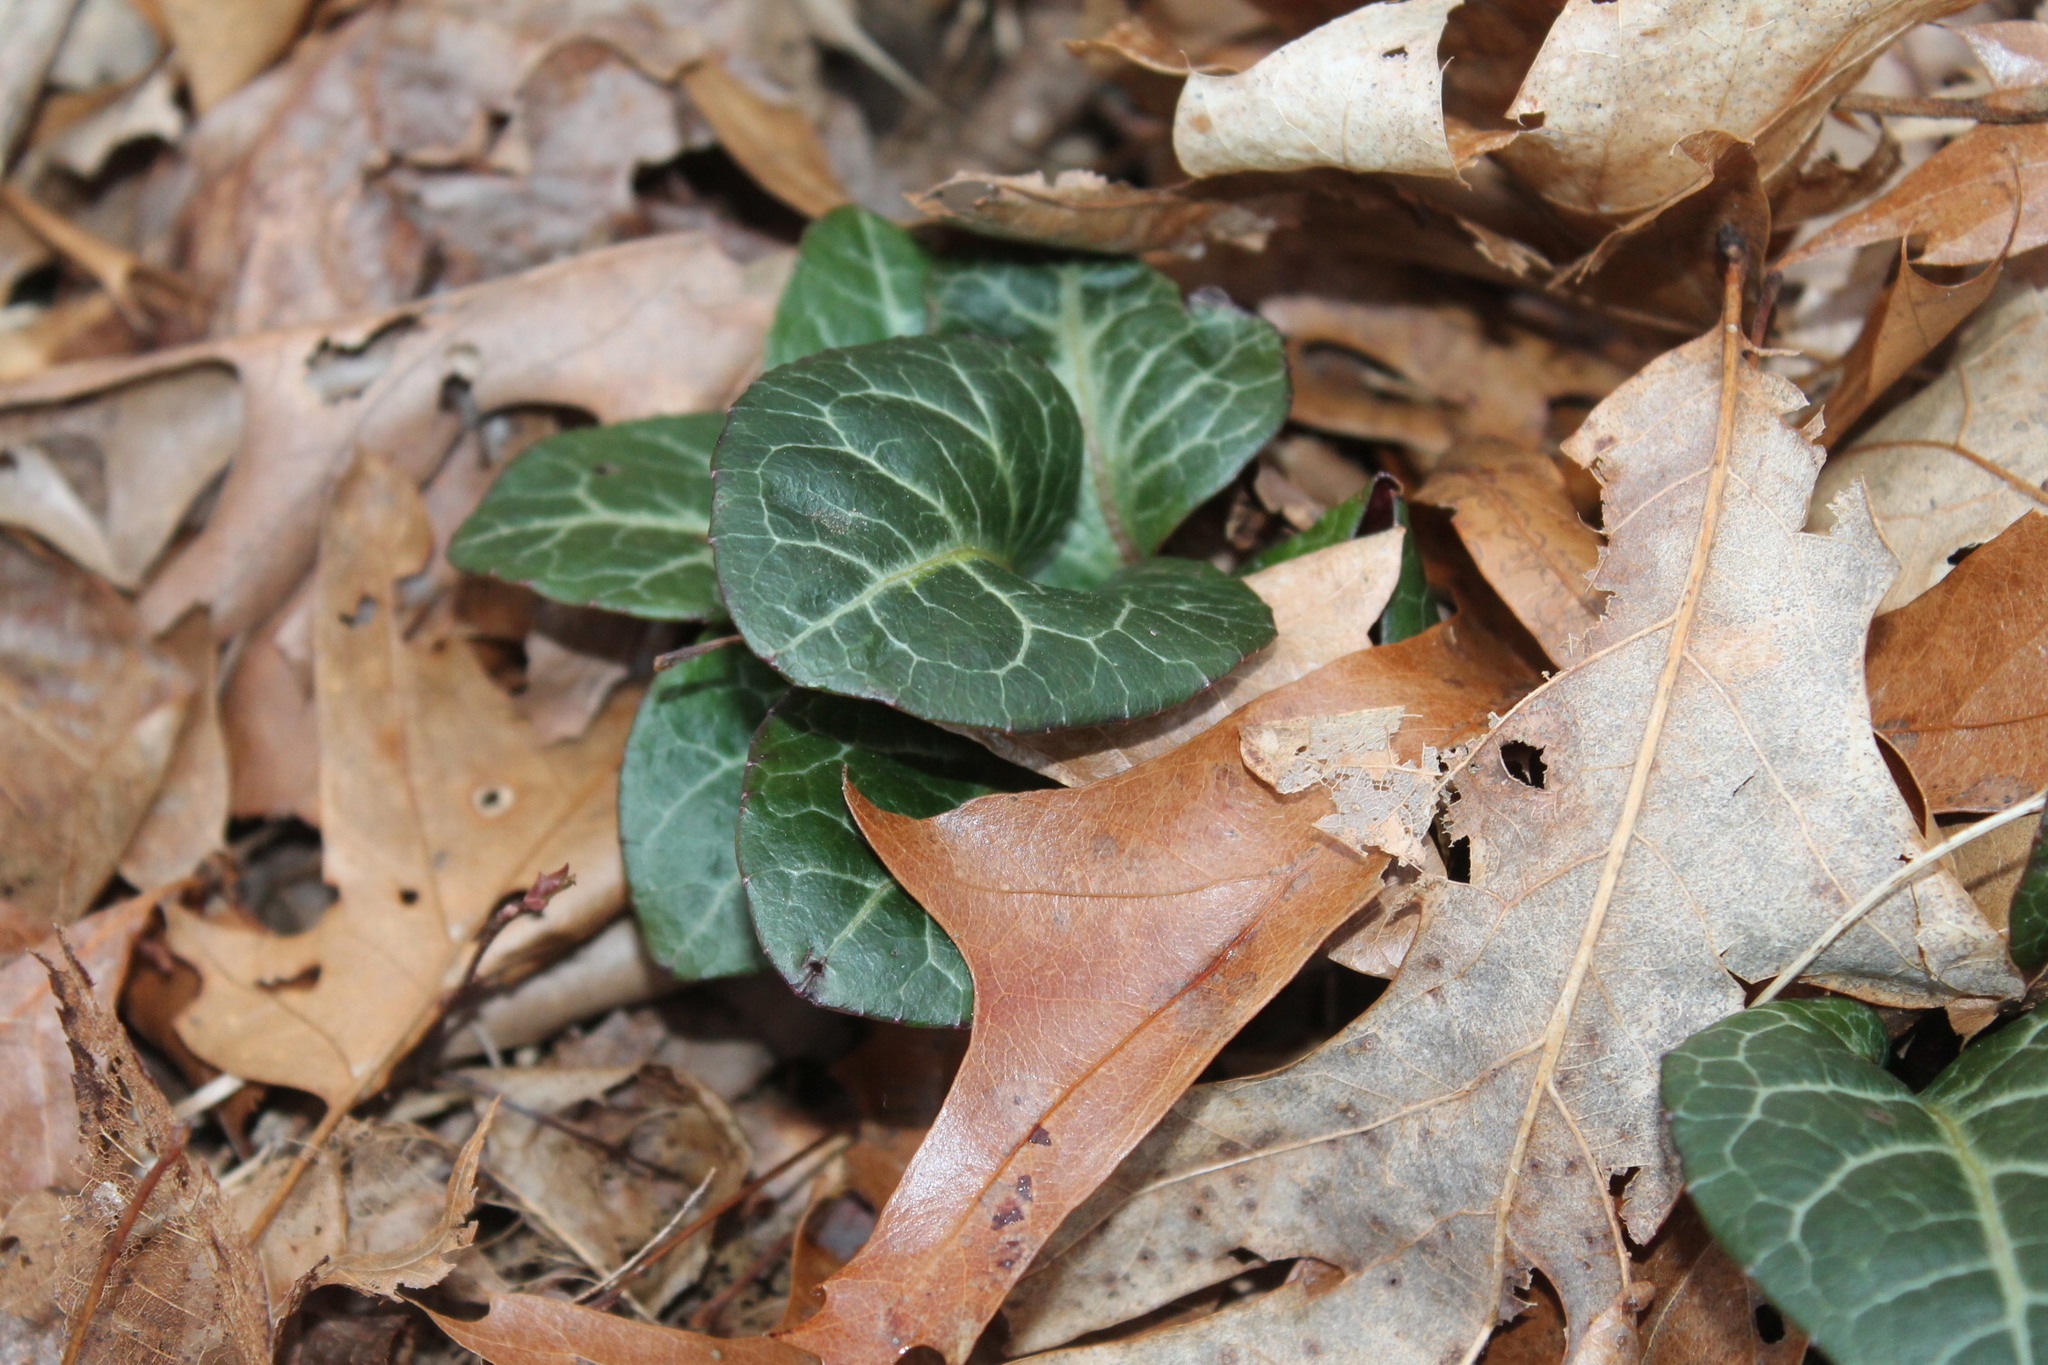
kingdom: Plantae
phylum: Tracheophyta
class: Magnoliopsida
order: Ericales
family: Ericaceae
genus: Pyrola
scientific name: Pyrola americana
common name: American wintergreen
